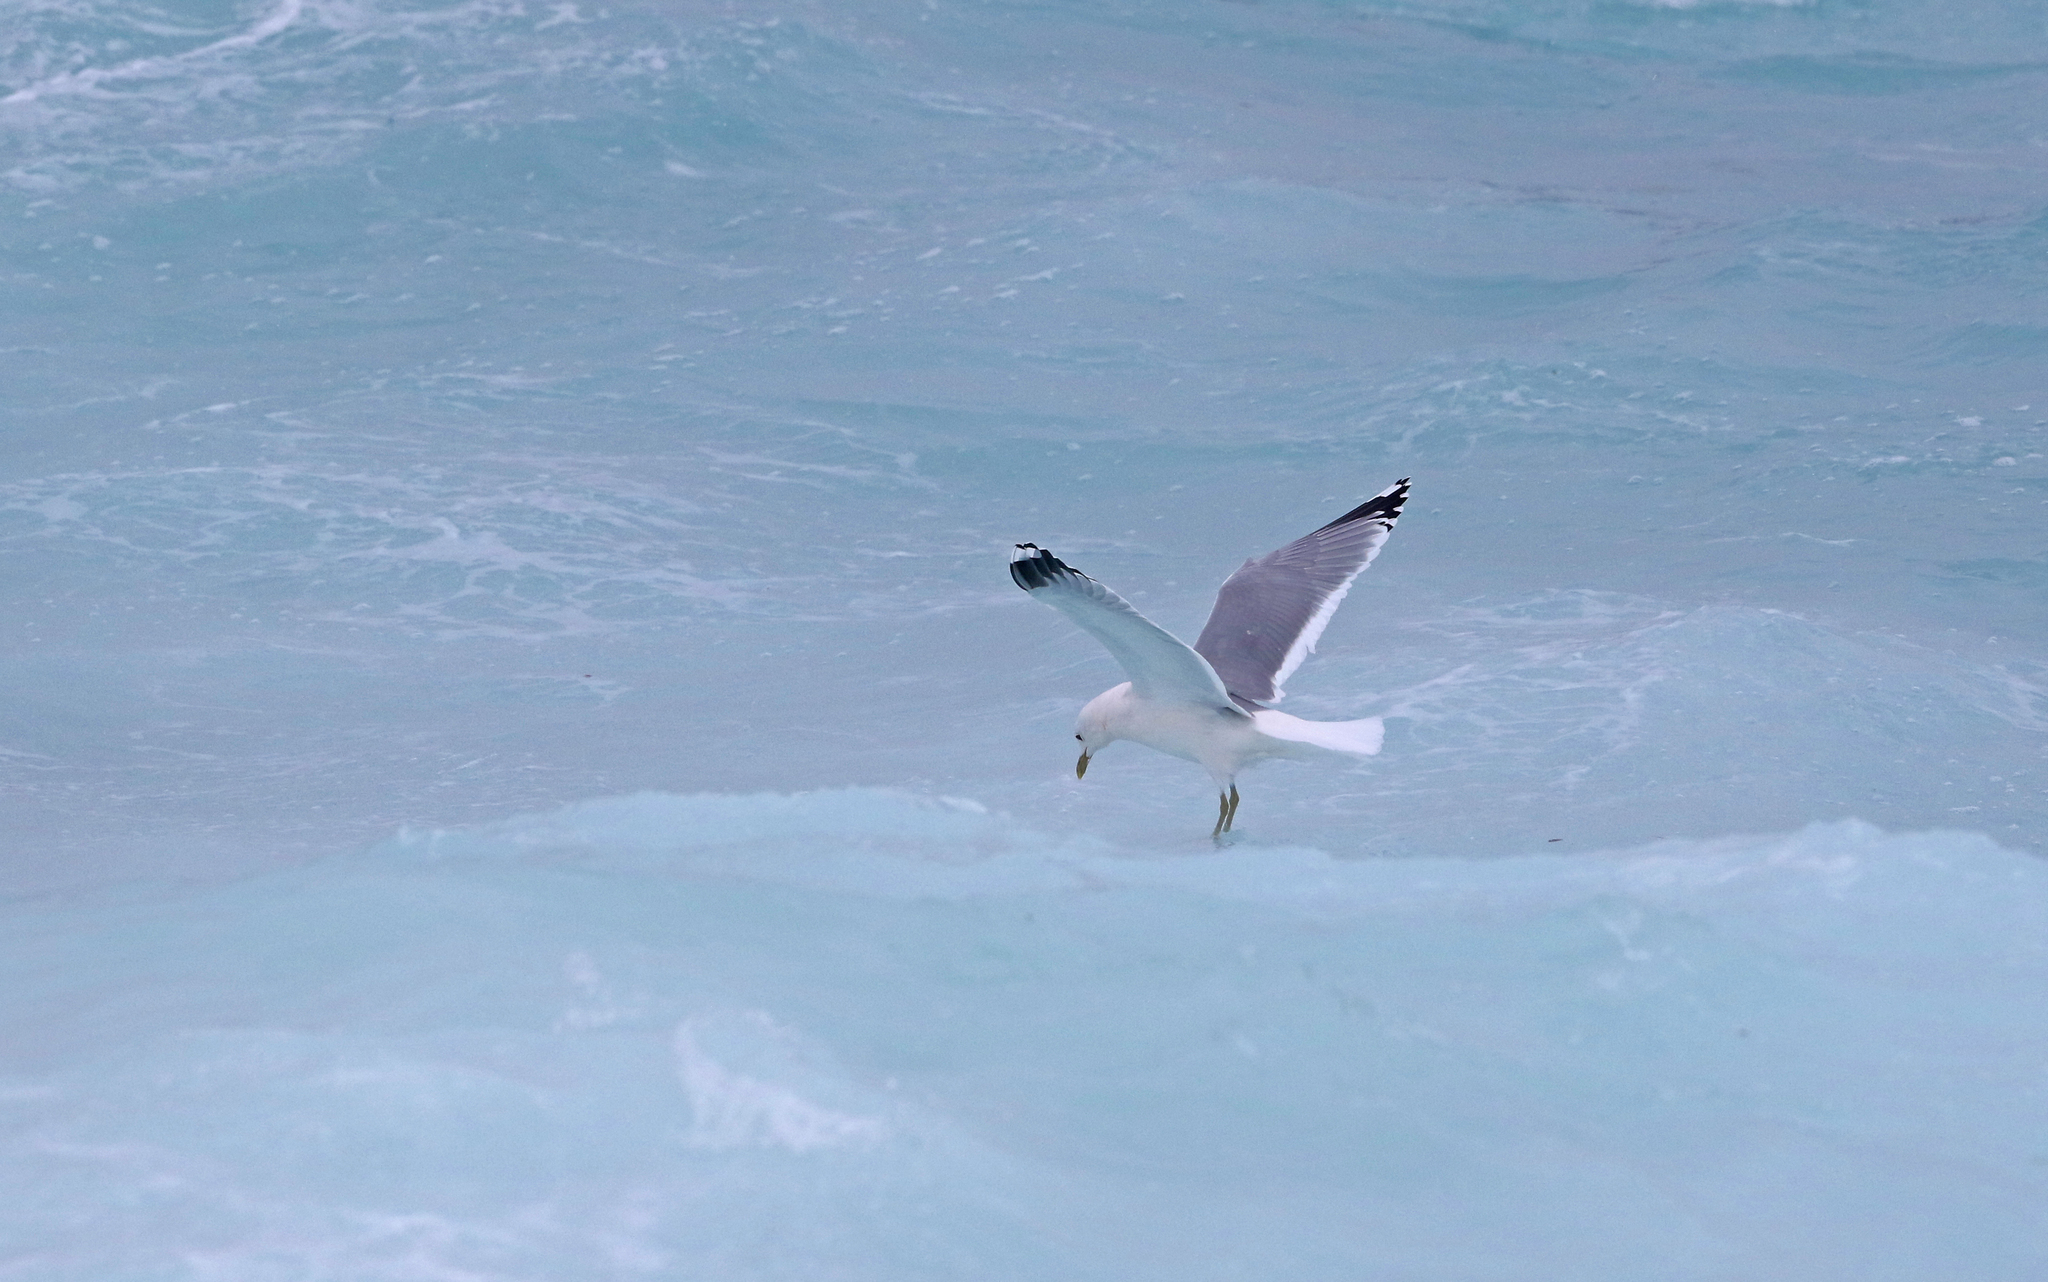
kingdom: Animalia
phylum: Chordata
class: Aves
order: Charadriiformes
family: Laridae
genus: Larus
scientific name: Larus canus
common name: Mew gull
